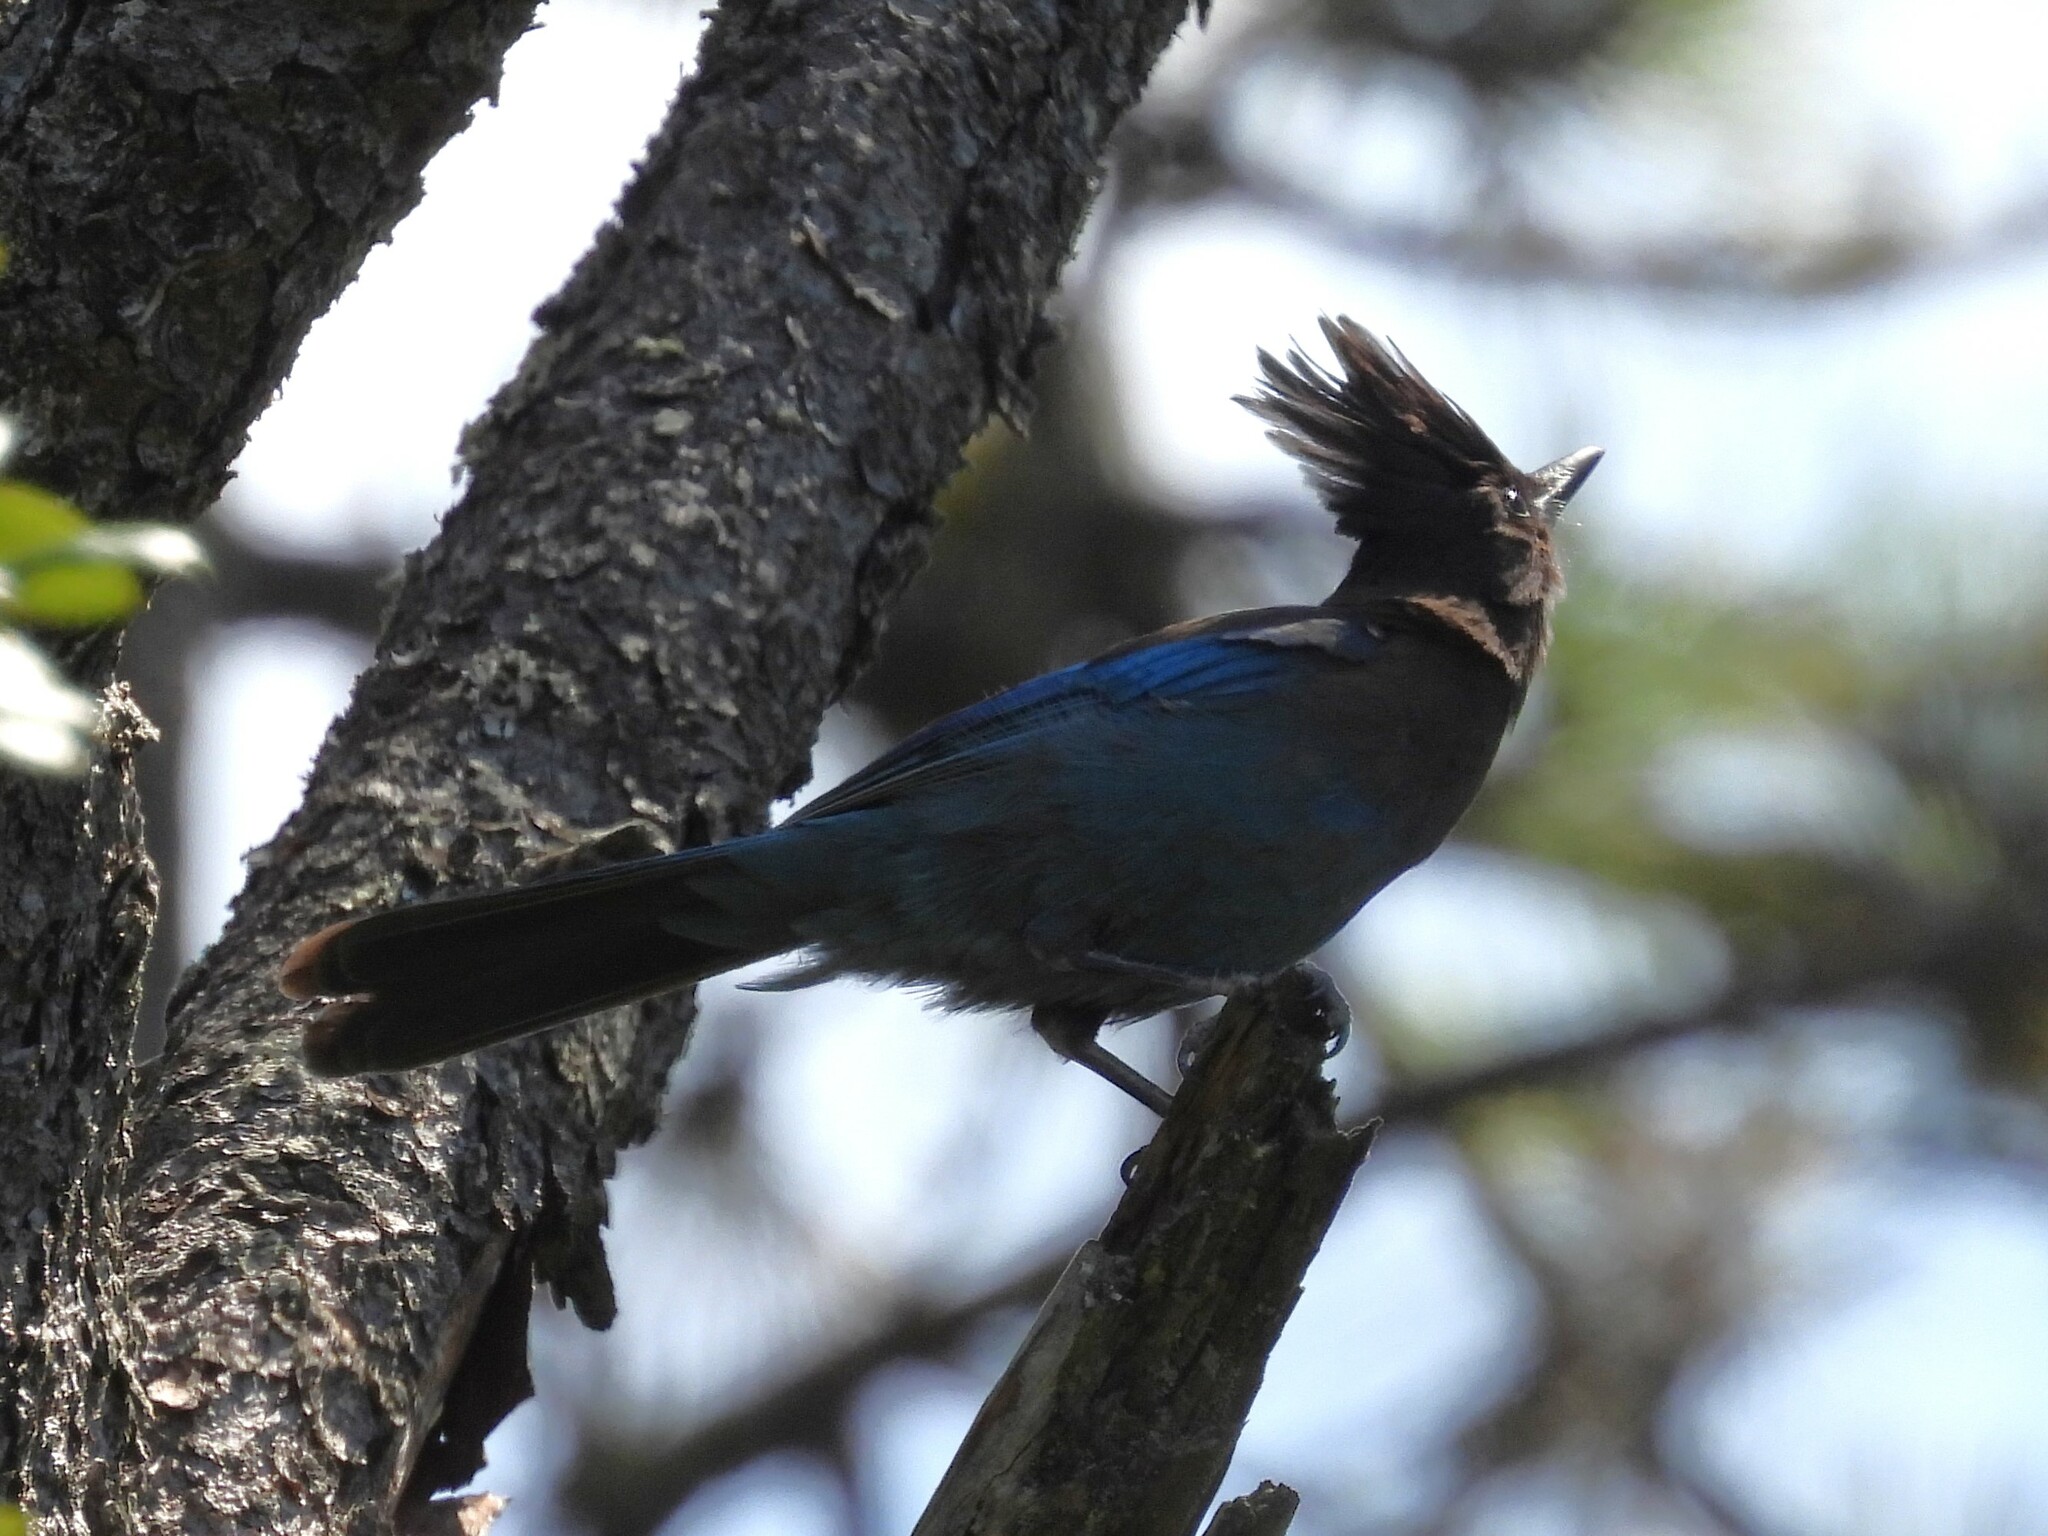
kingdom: Animalia
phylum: Chordata
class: Aves
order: Passeriformes
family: Corvidae
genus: Cyanocitta
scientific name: Cyanocitta stelleri
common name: Steller's jay
